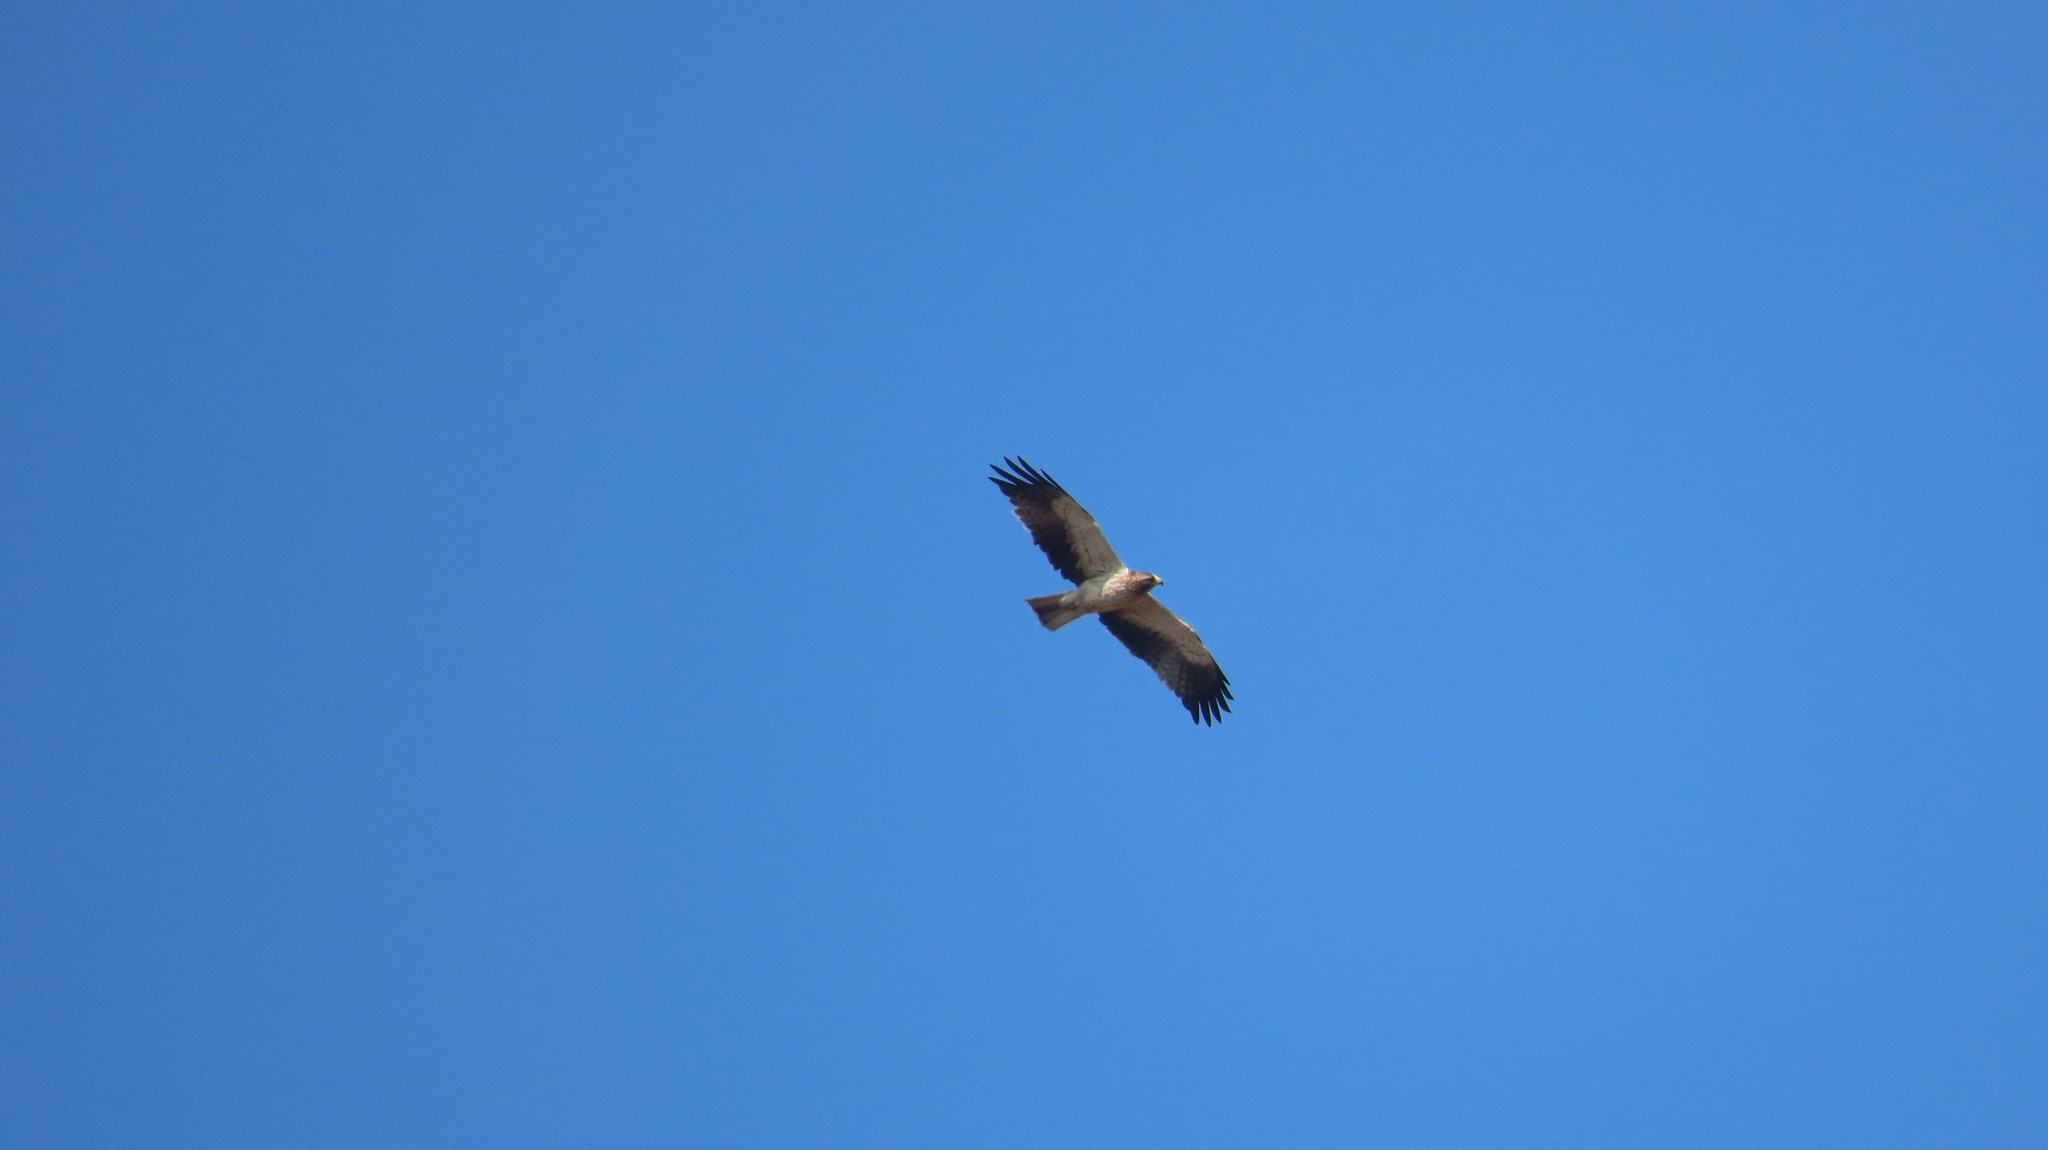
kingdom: Animalia
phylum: Chordata
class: Aves
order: Accipitriformes
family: Accipitridae
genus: Hieraaetus
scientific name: Hieraaetus pennatus
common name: Booted eagle
